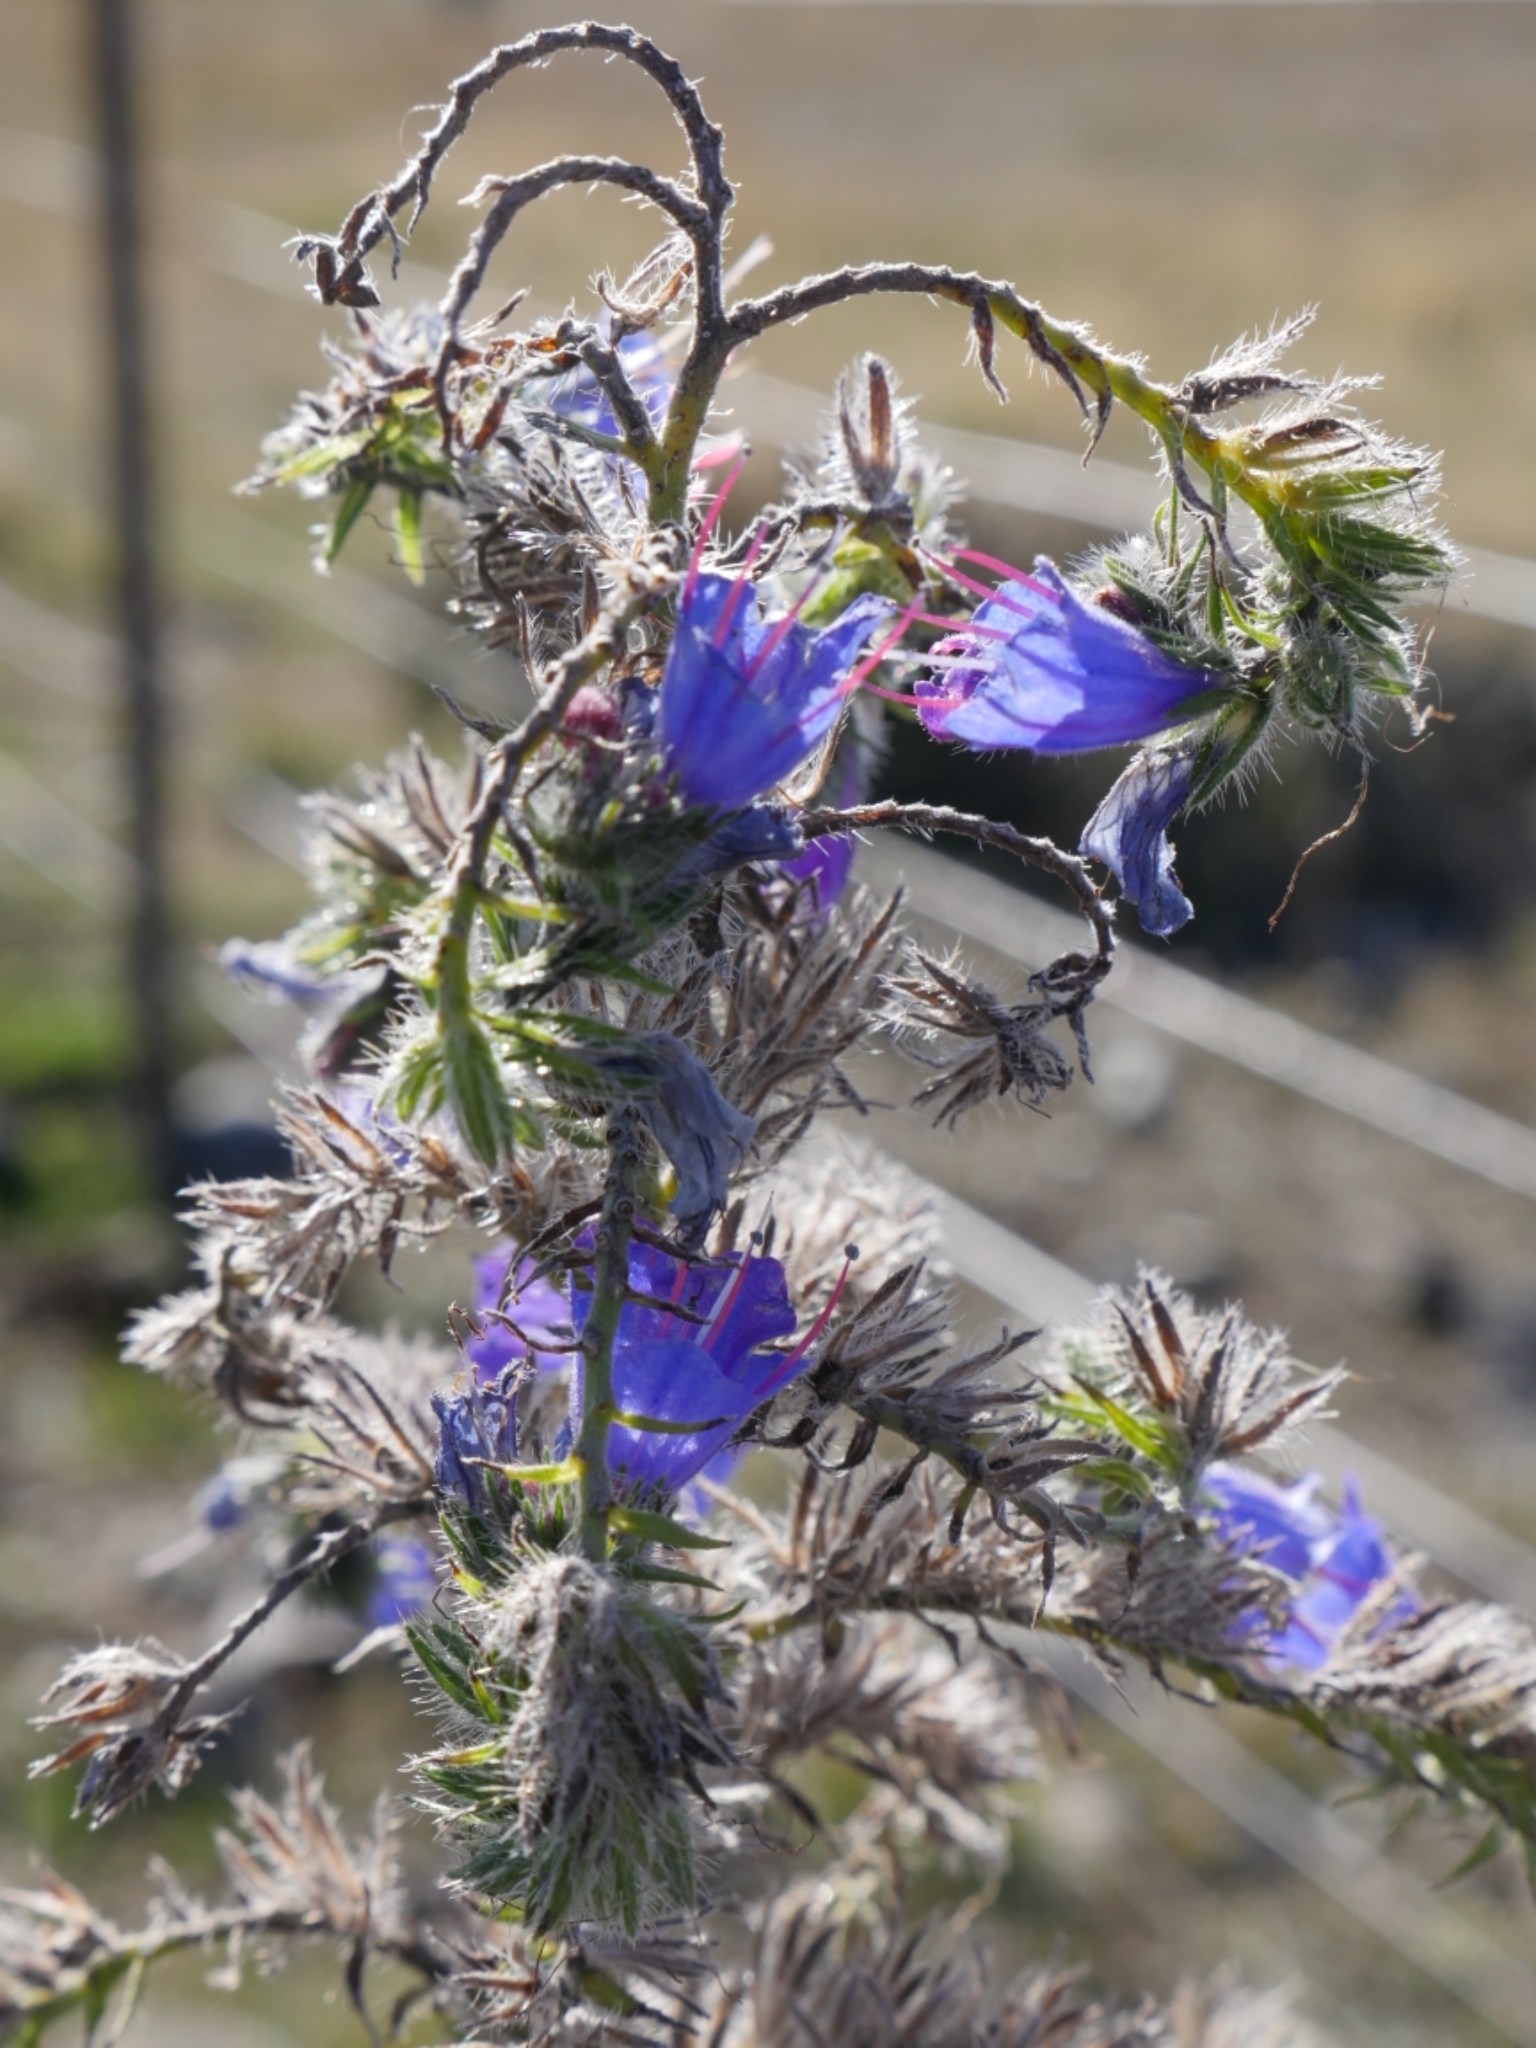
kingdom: Plantae
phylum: Tracheophyta
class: Magnoliopsida
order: Boraginales
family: Boraginaceae
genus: Echium
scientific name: Echium vulgare
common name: Common viper's bugloss
